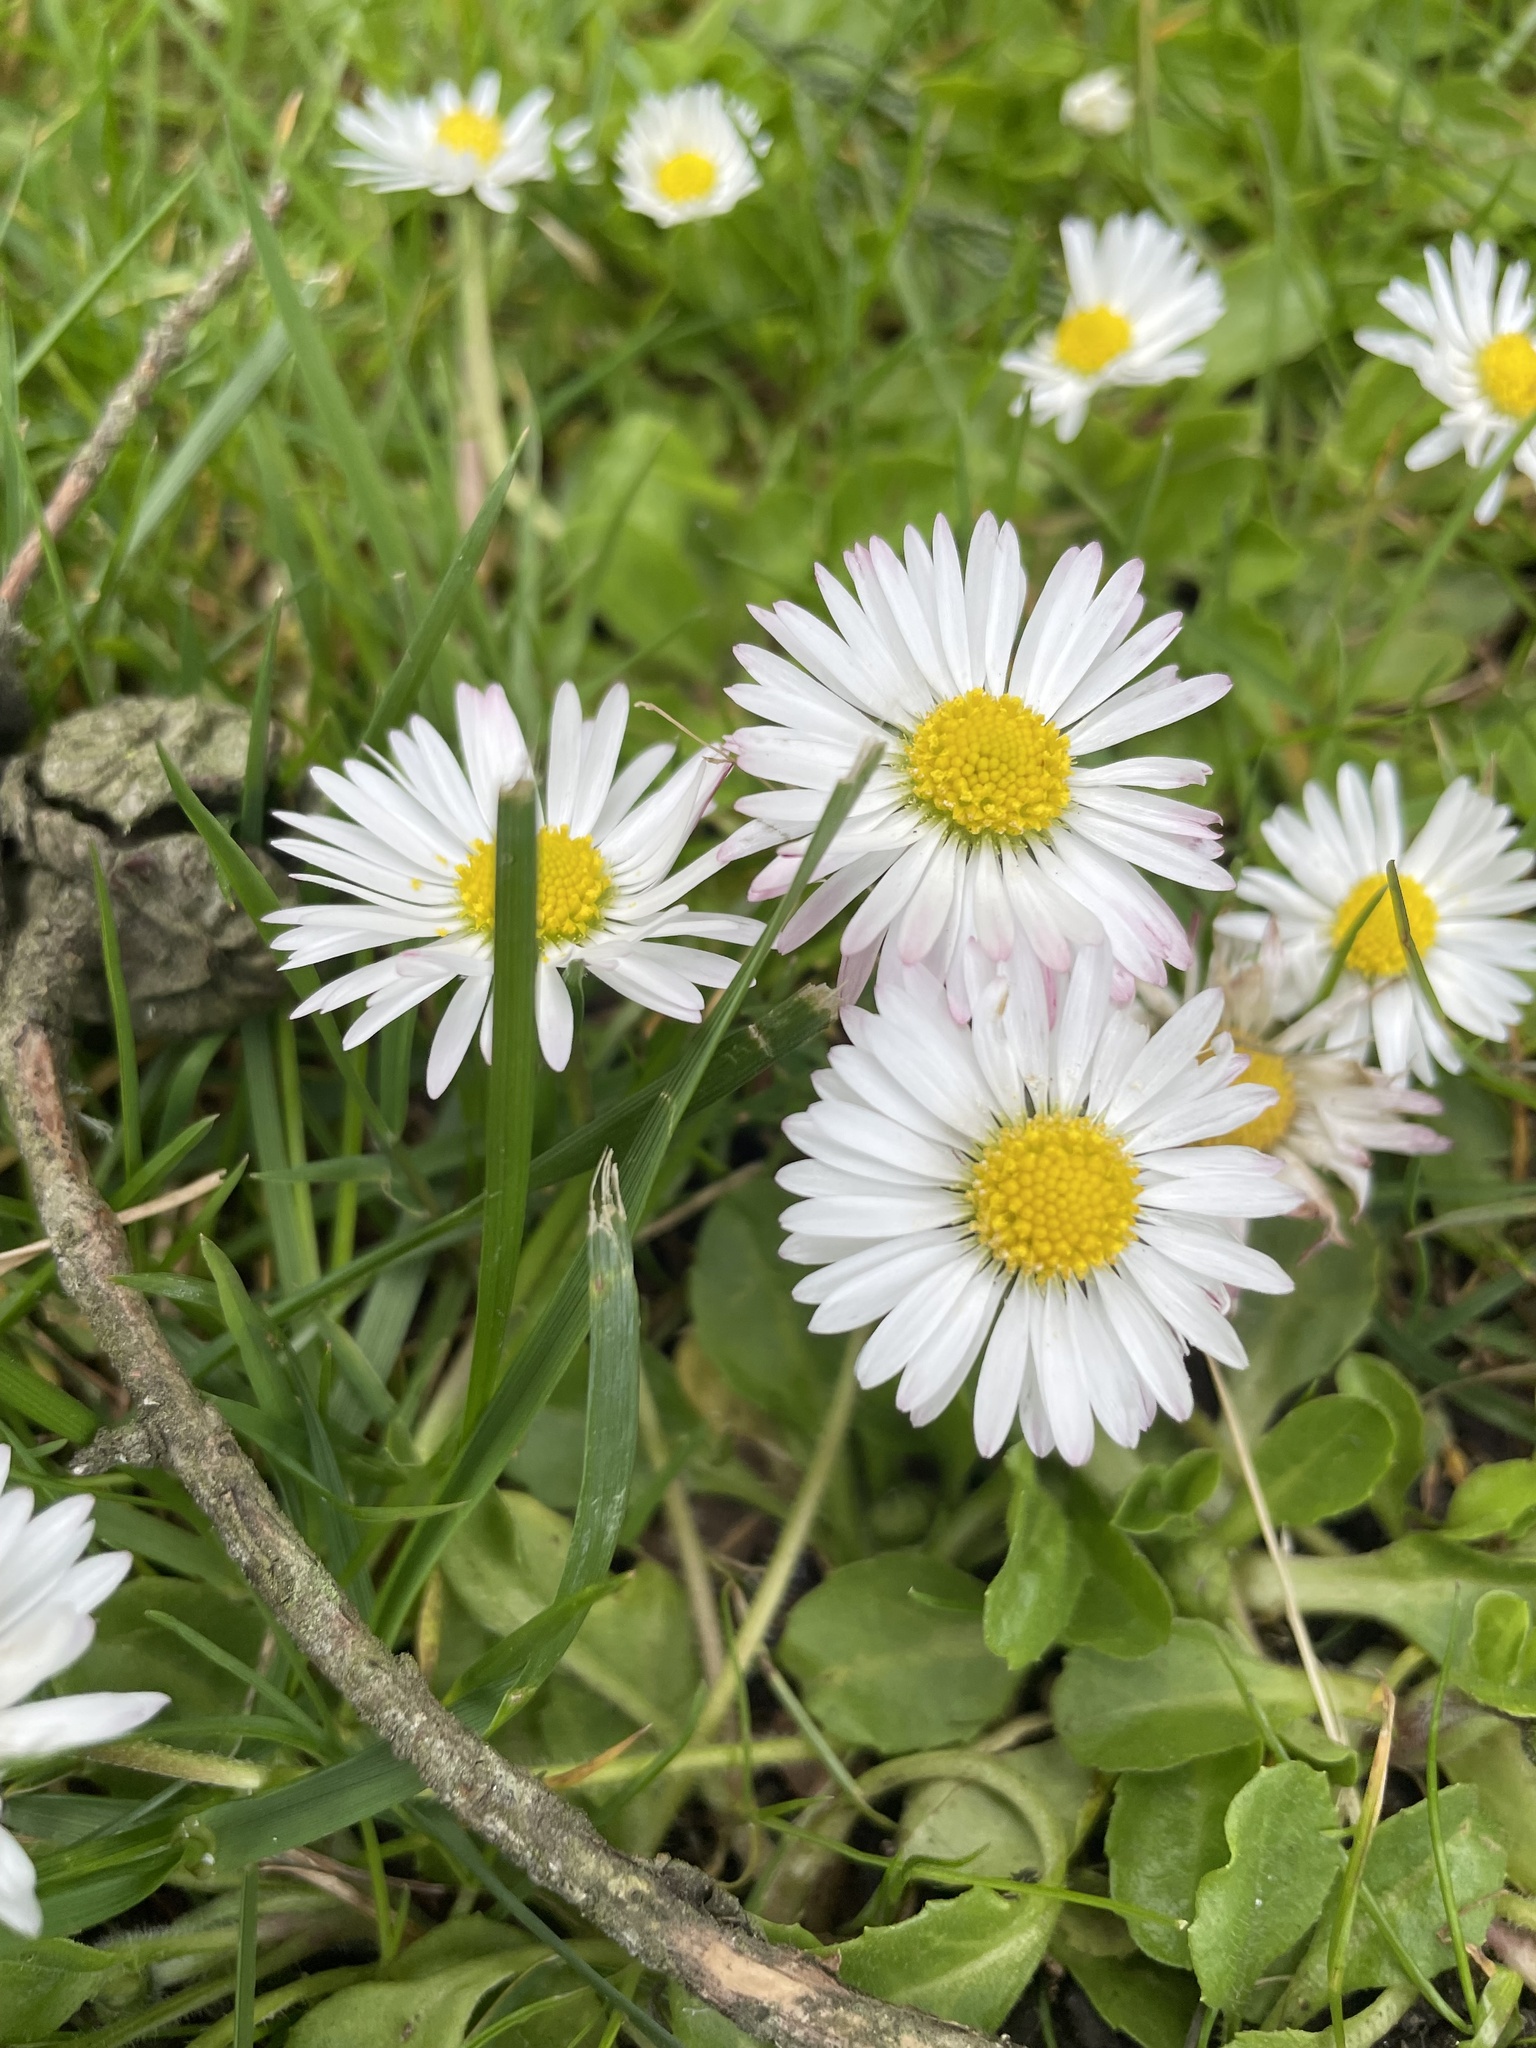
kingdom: Plantae
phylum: Tracheophyta
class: Magnoliopsida
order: Asterales
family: Asteraceae
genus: Bellis
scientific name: Bellis perennis
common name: Lawndaisy
